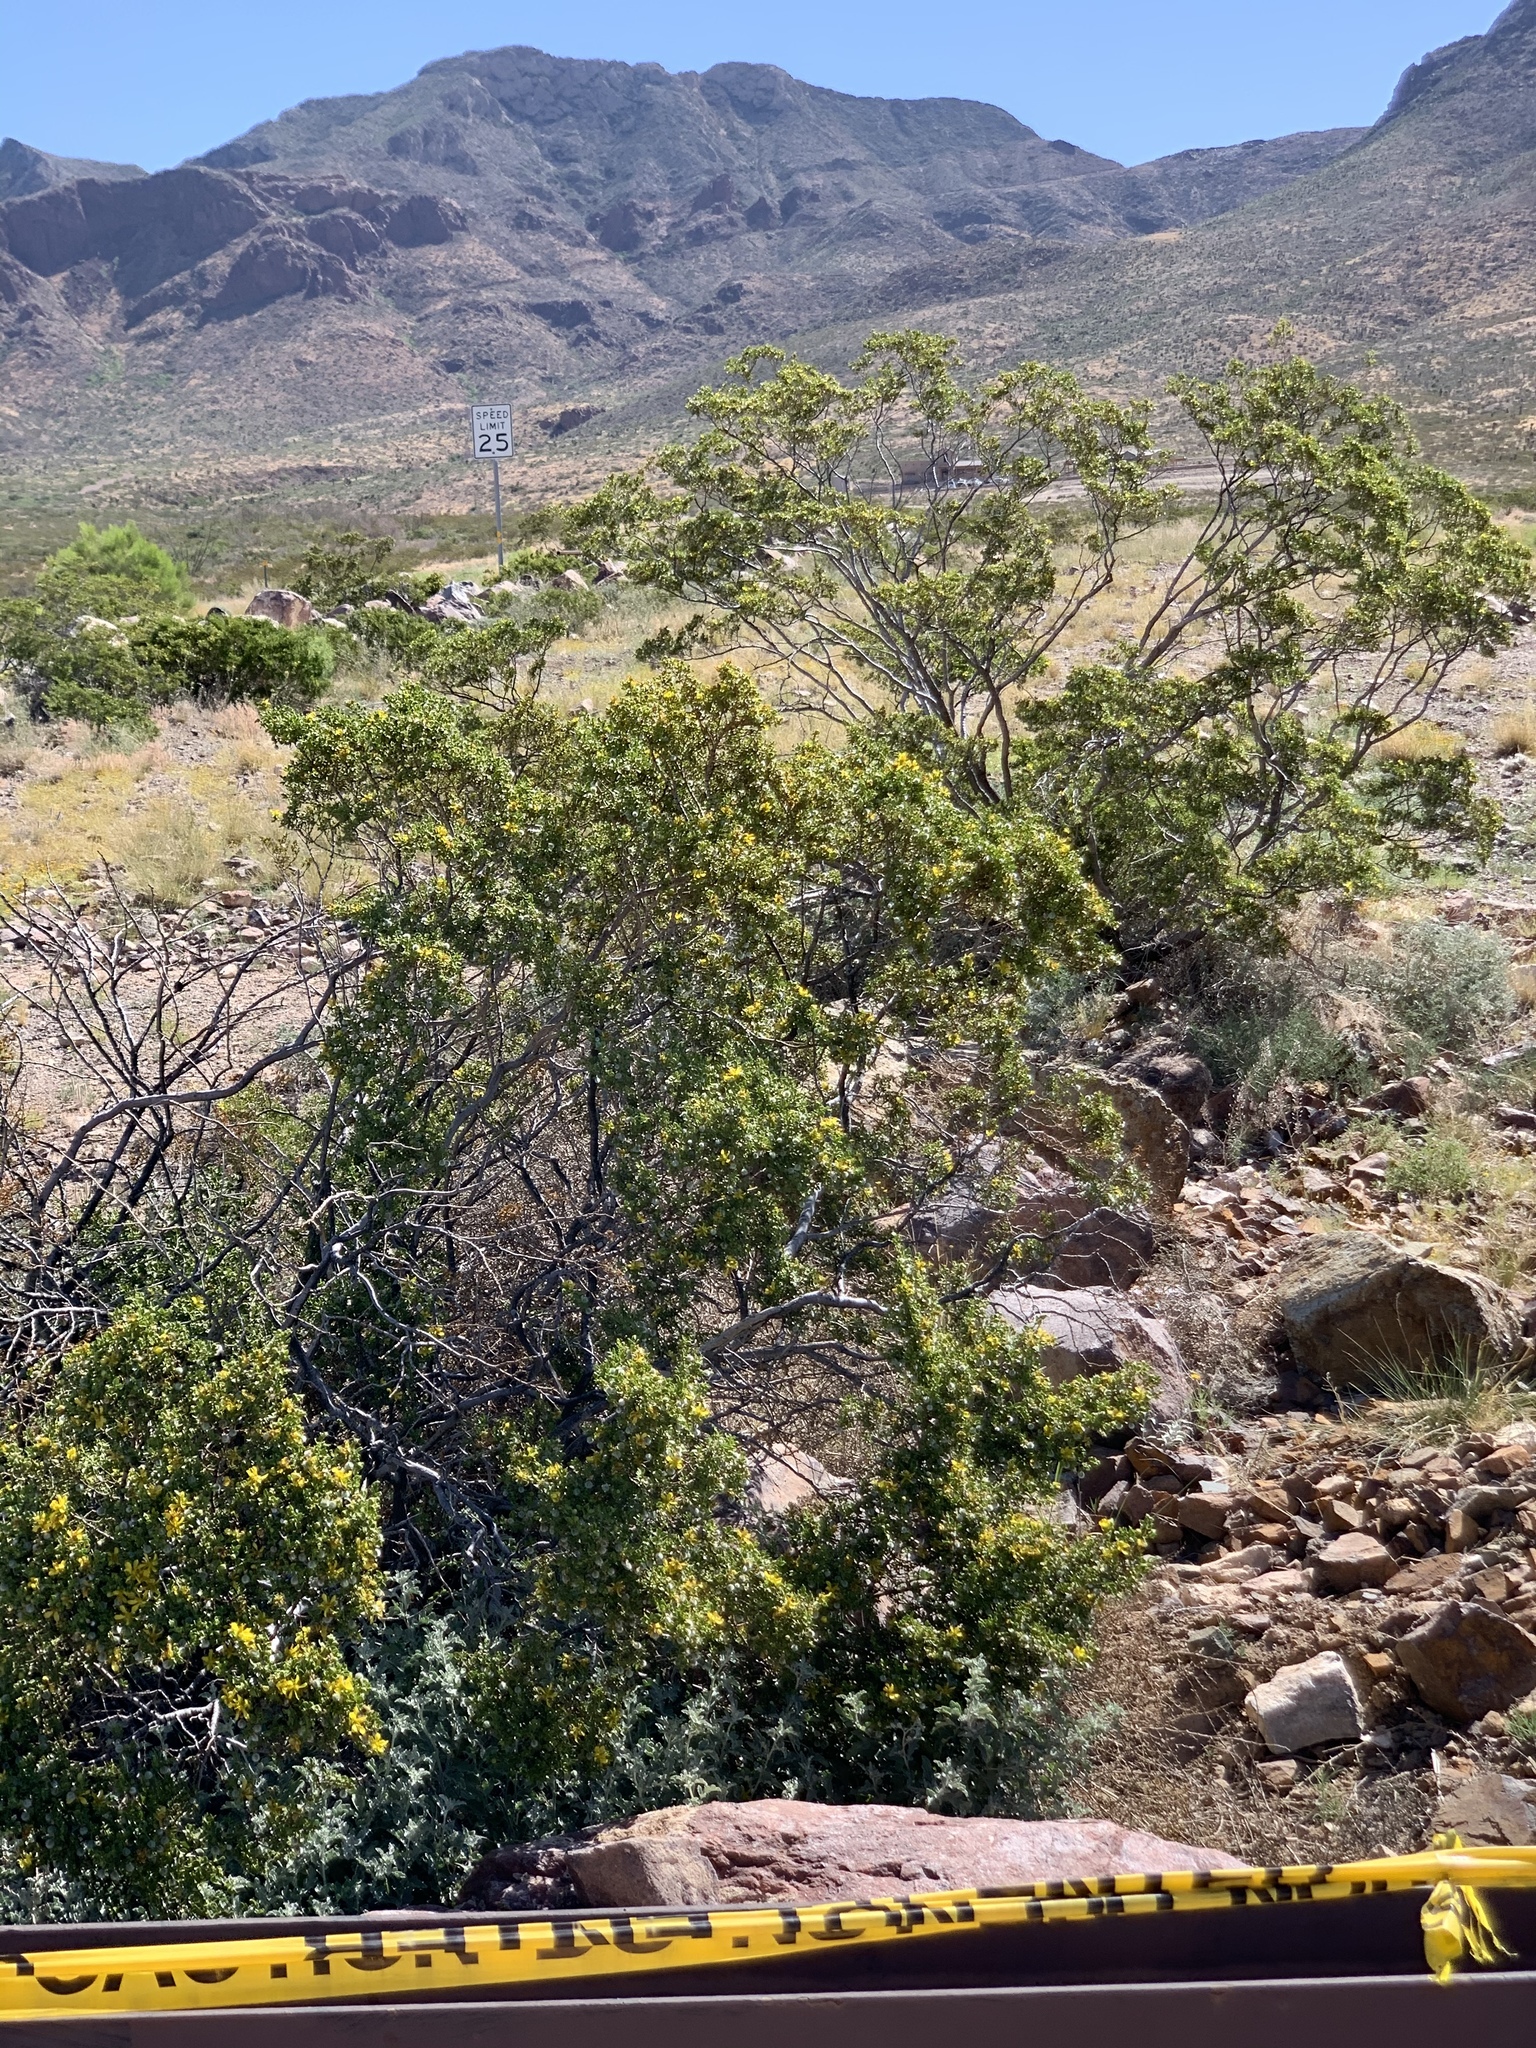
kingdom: Plantae
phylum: Tracheophyta
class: Magnoliopsida
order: Zygophyllales
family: Zygophyllaceae
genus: Larrea
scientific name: Larrea tridentata
